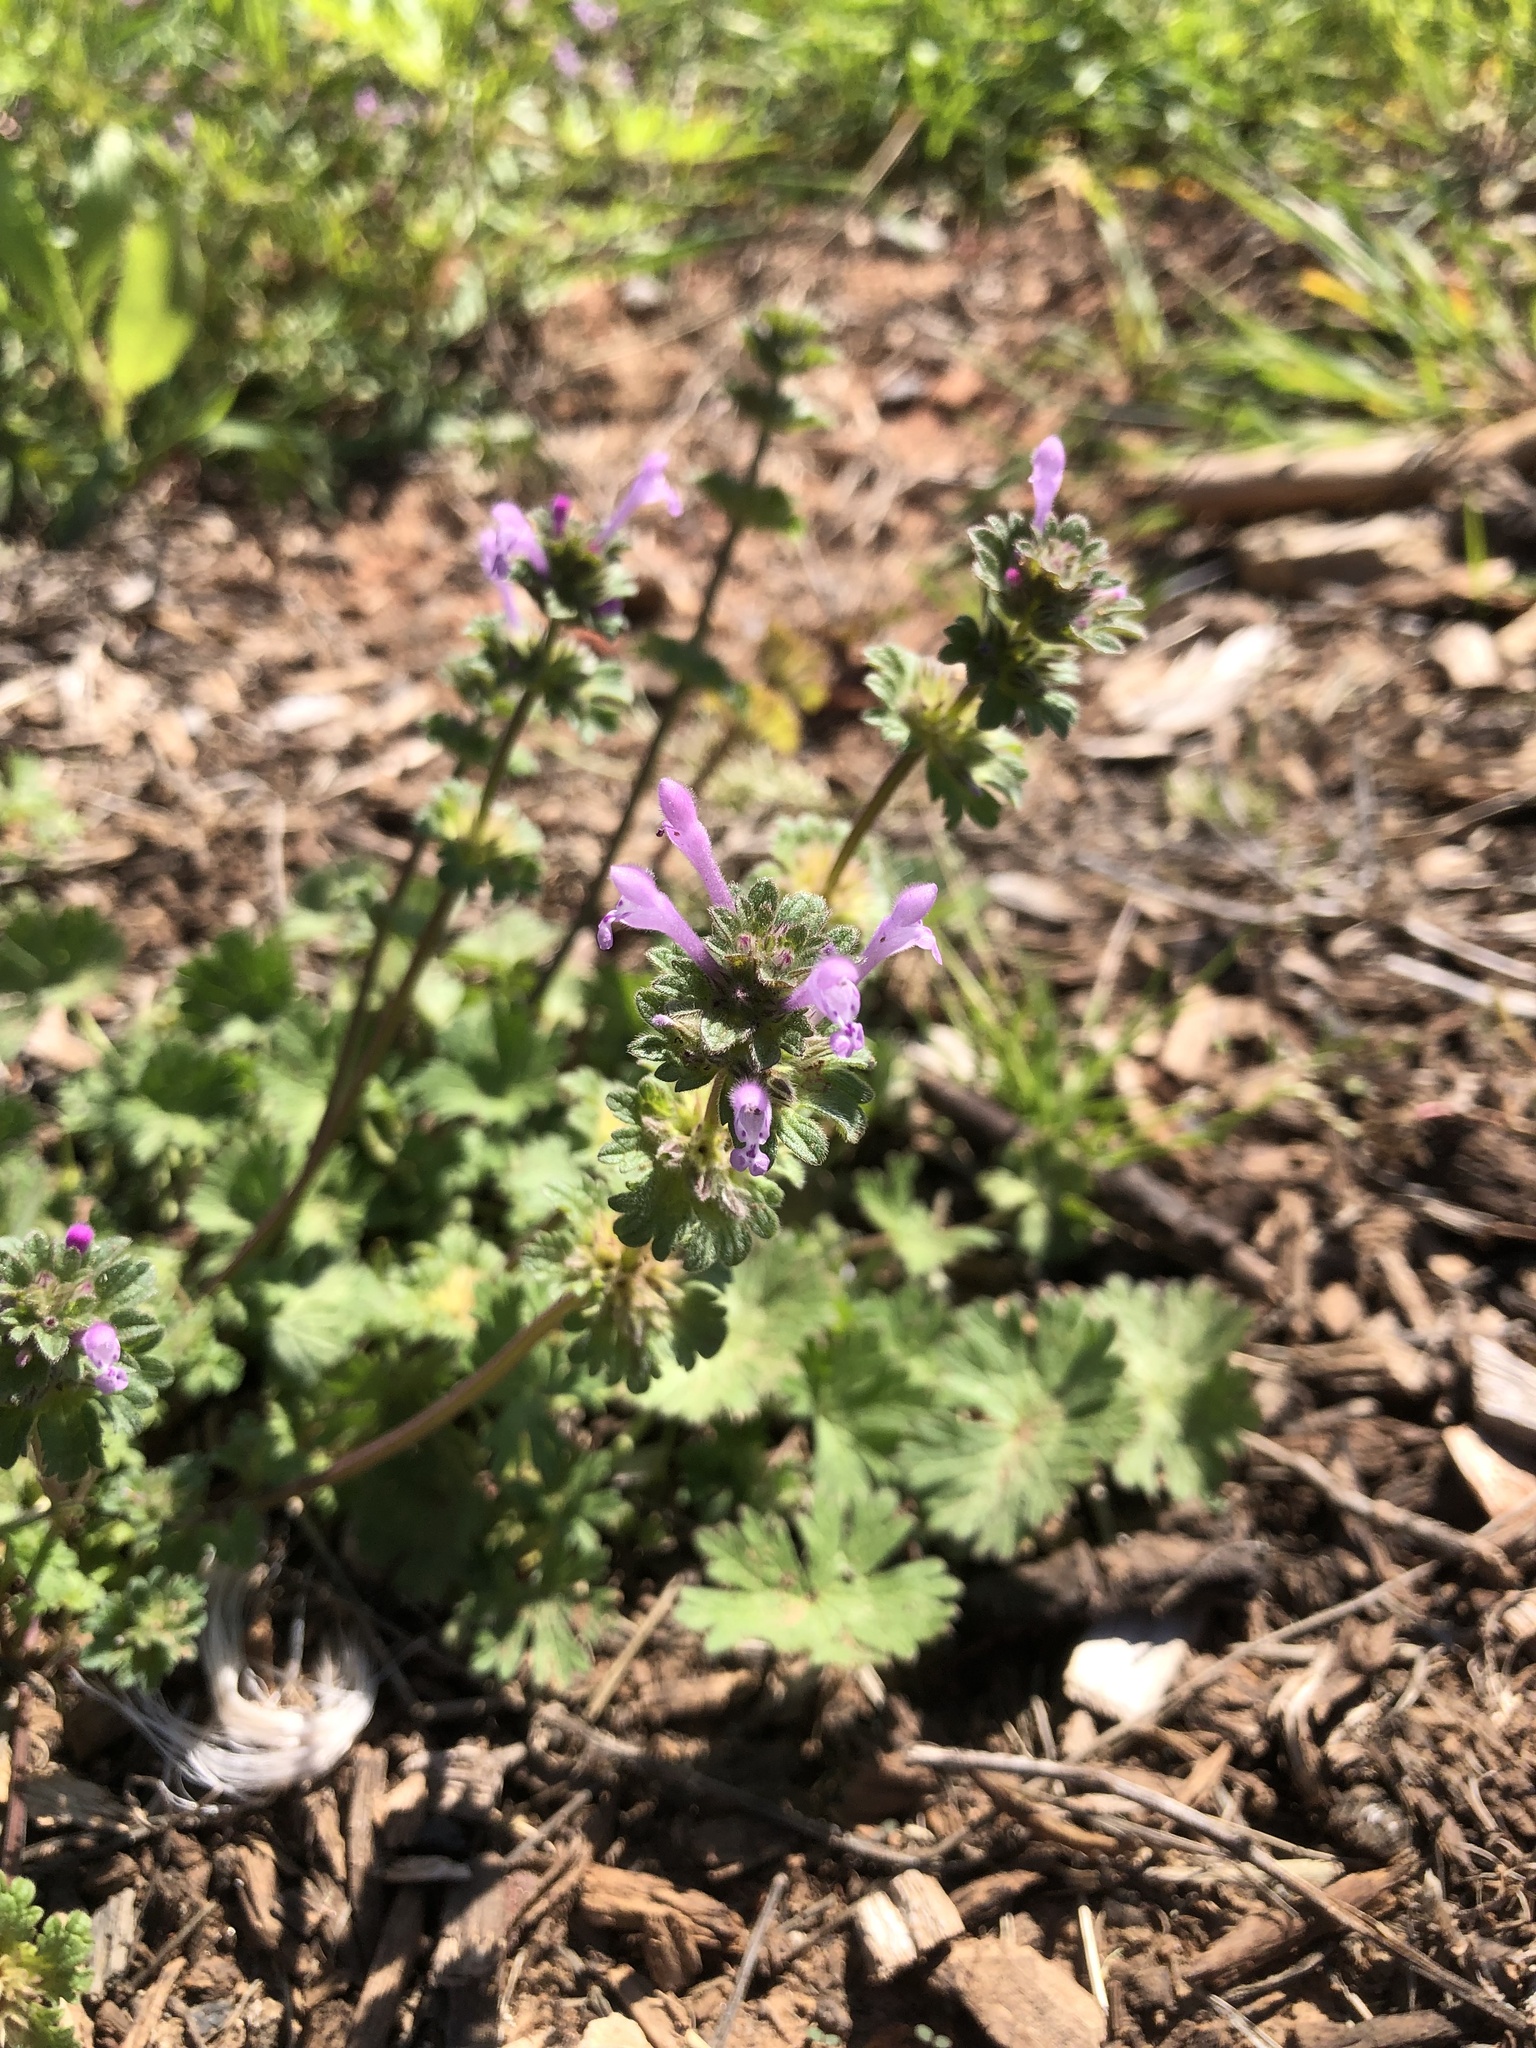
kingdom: Plantae
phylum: Tracheophyta
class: Magnoliopsida
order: Lamiales
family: Lamiaceae
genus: Lamium
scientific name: Lamium amplexicaule
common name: Henbit dead-nettle
